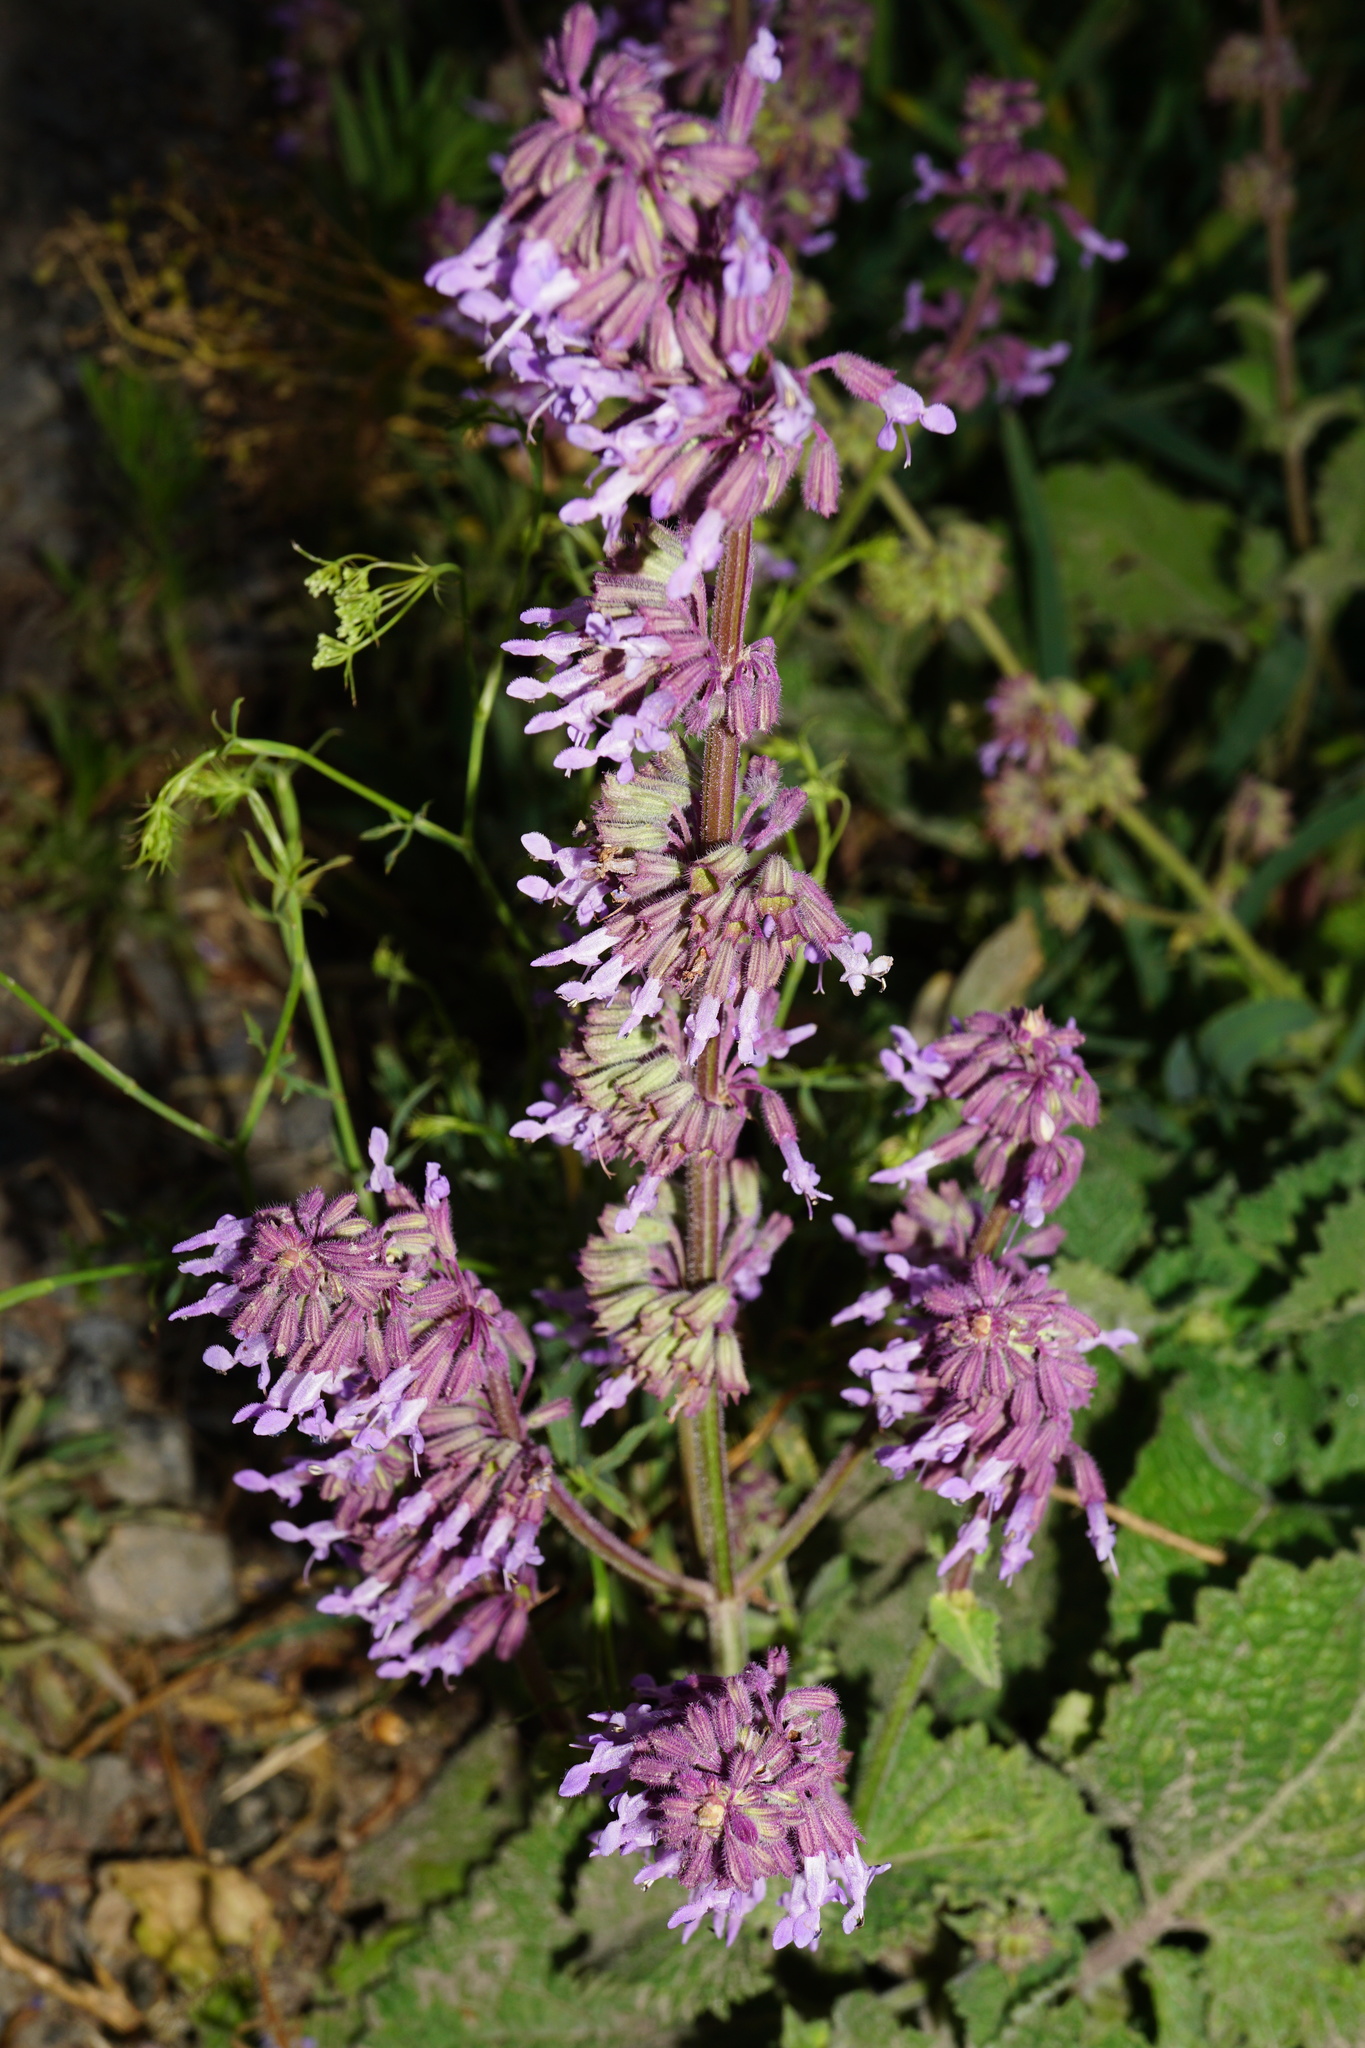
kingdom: Plantae
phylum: Tracheophyta
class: Magnoliopsida
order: Lamiales
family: Lamiaceae
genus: Salvia
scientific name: Salvia verticillata
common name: Whorled clary
